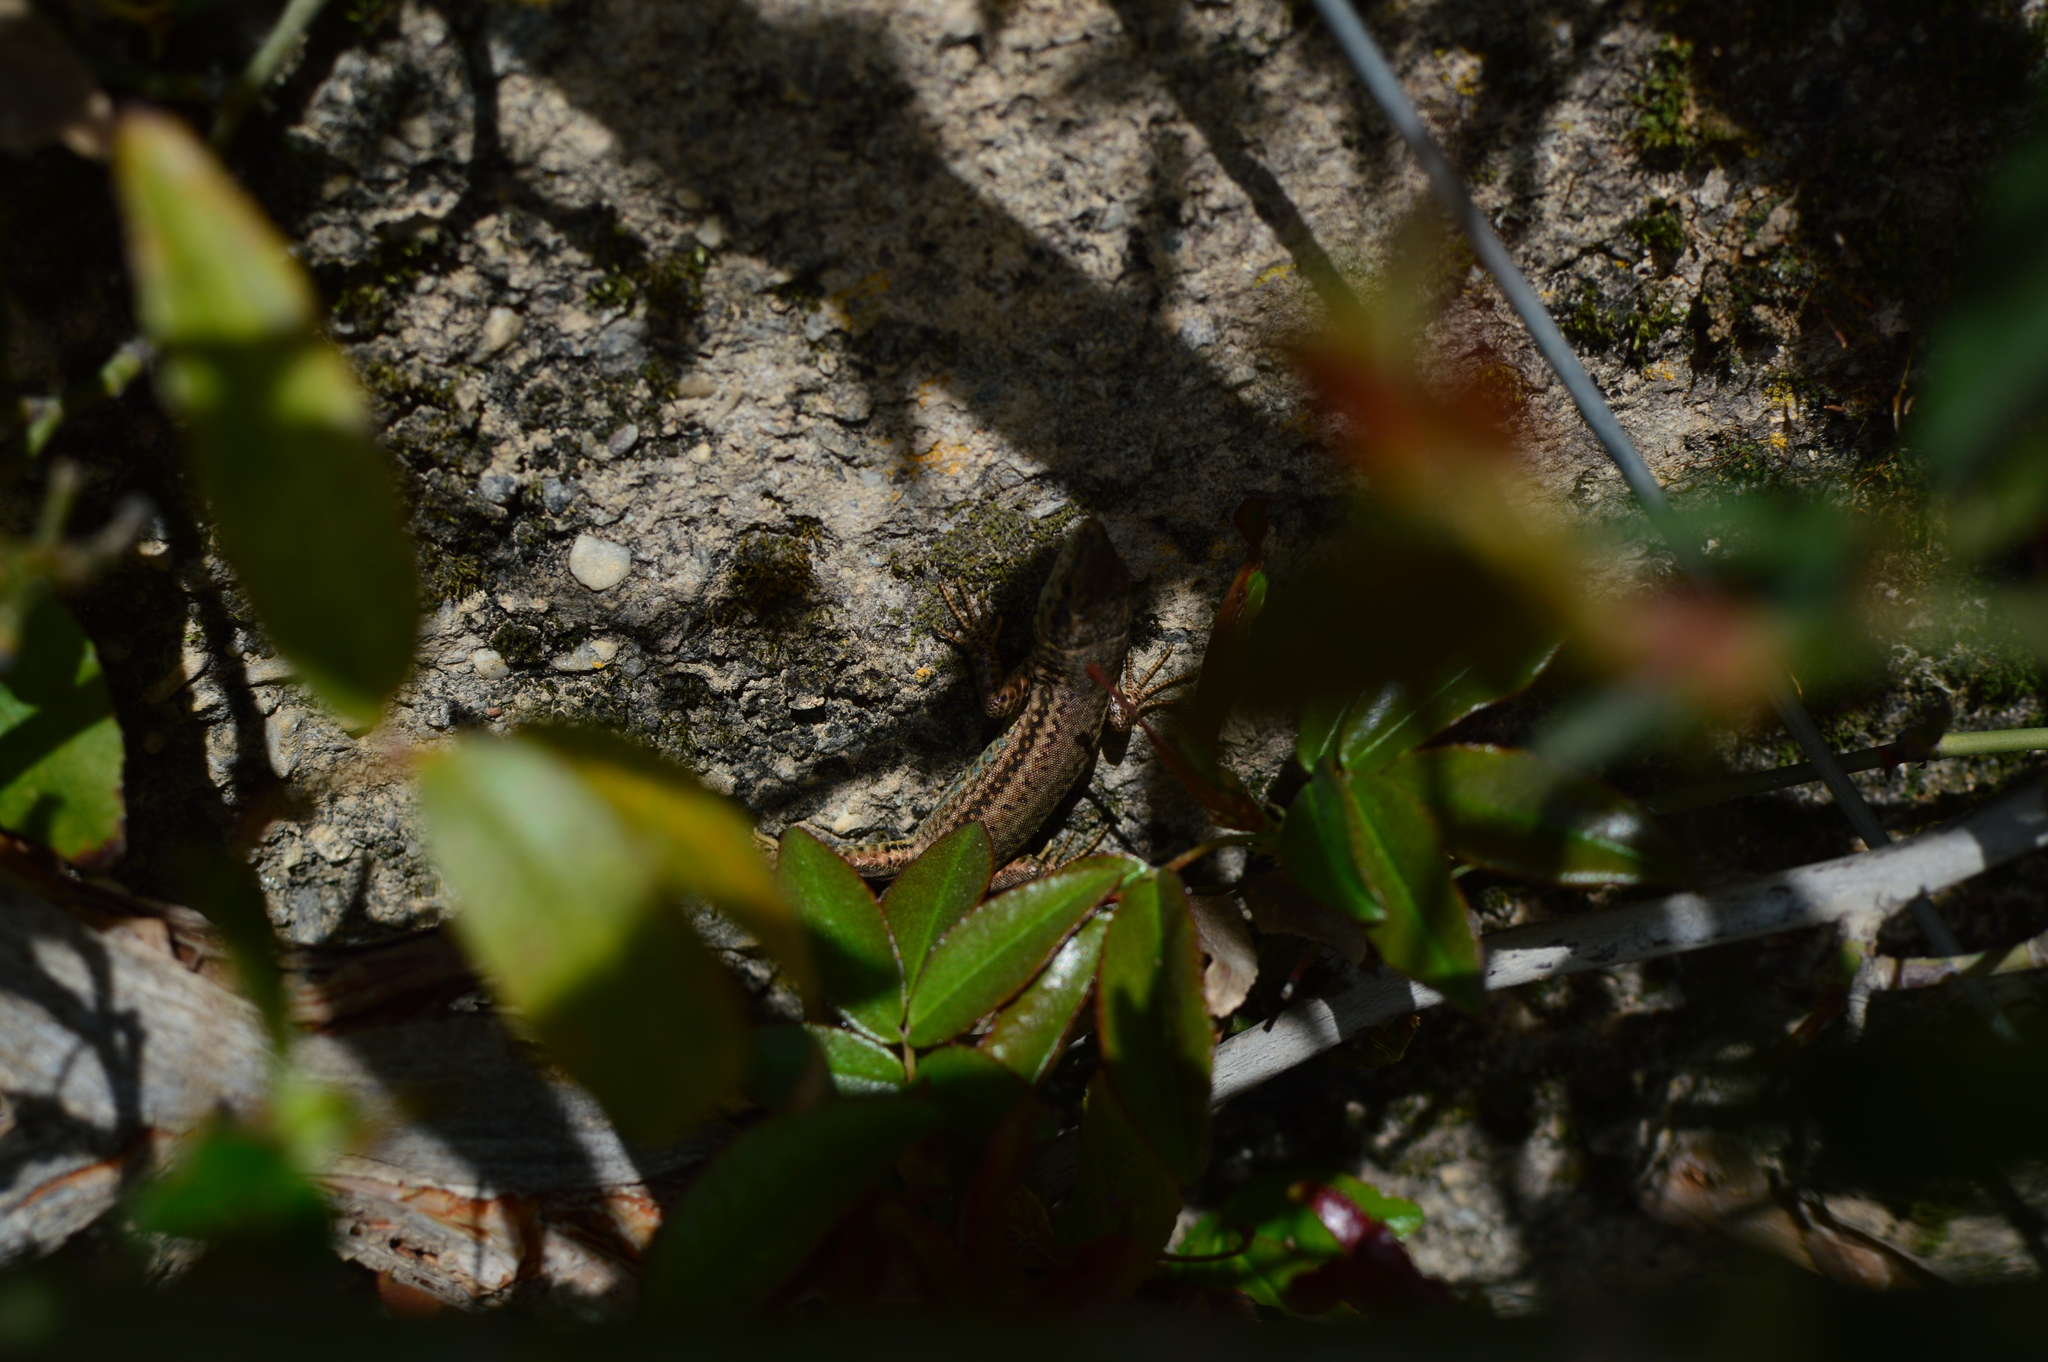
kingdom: Animalia
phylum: Chordata
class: Squamata
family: Lacertidae
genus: Podarcis
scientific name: Podarcis vaucheri
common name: Vaucher's wall lizard
